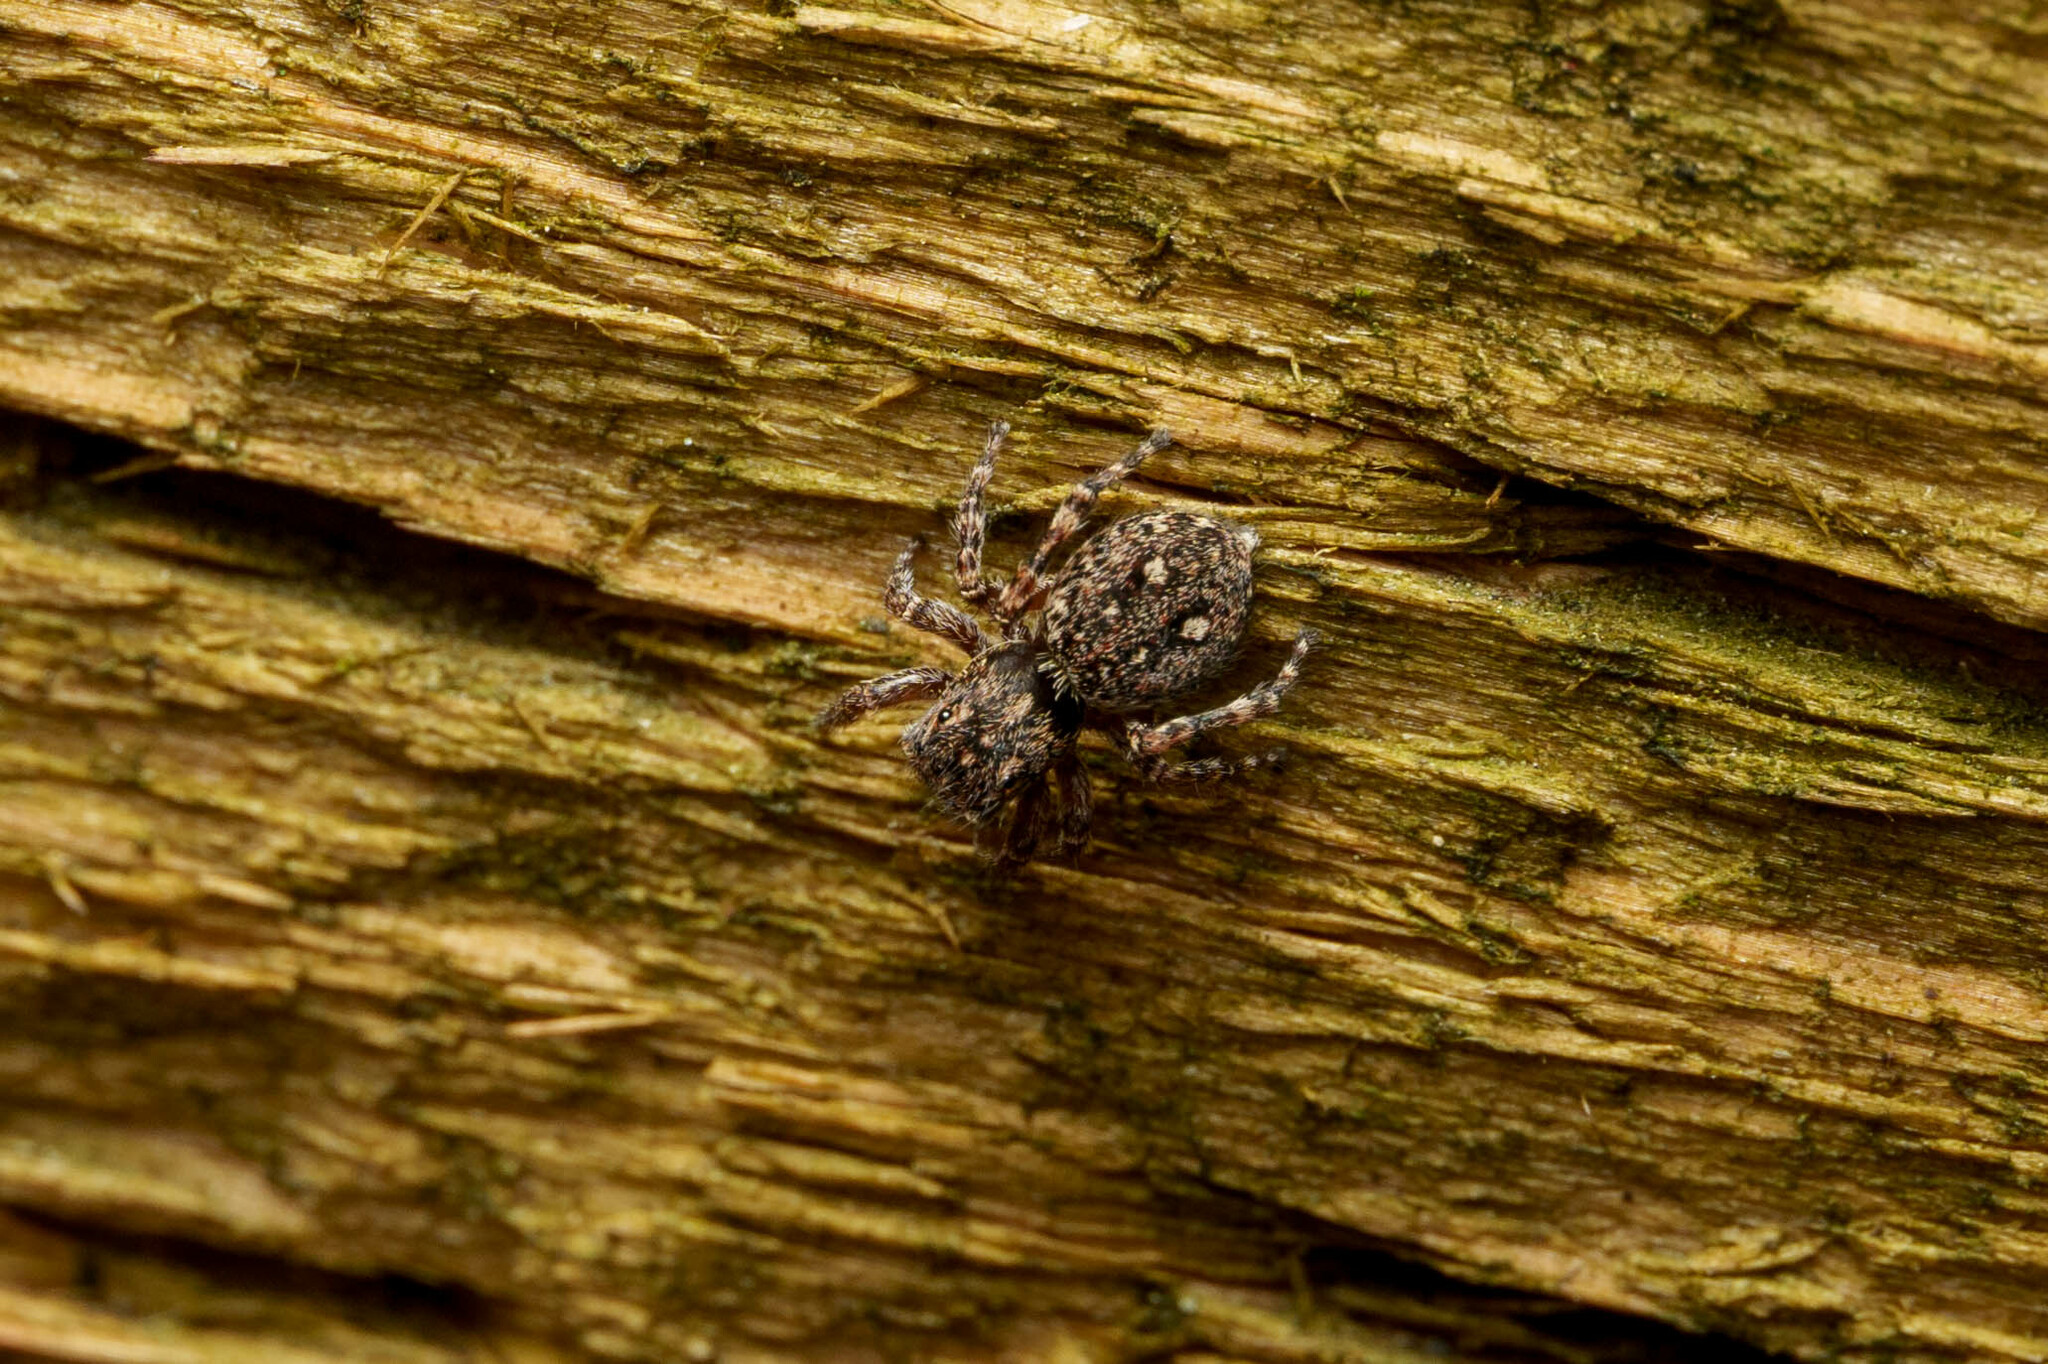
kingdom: Animalia
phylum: Arthropoda
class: Arachnida
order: Araneae
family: Salticidae
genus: Attulus
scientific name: Attulus pubescens
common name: Jumping spider
